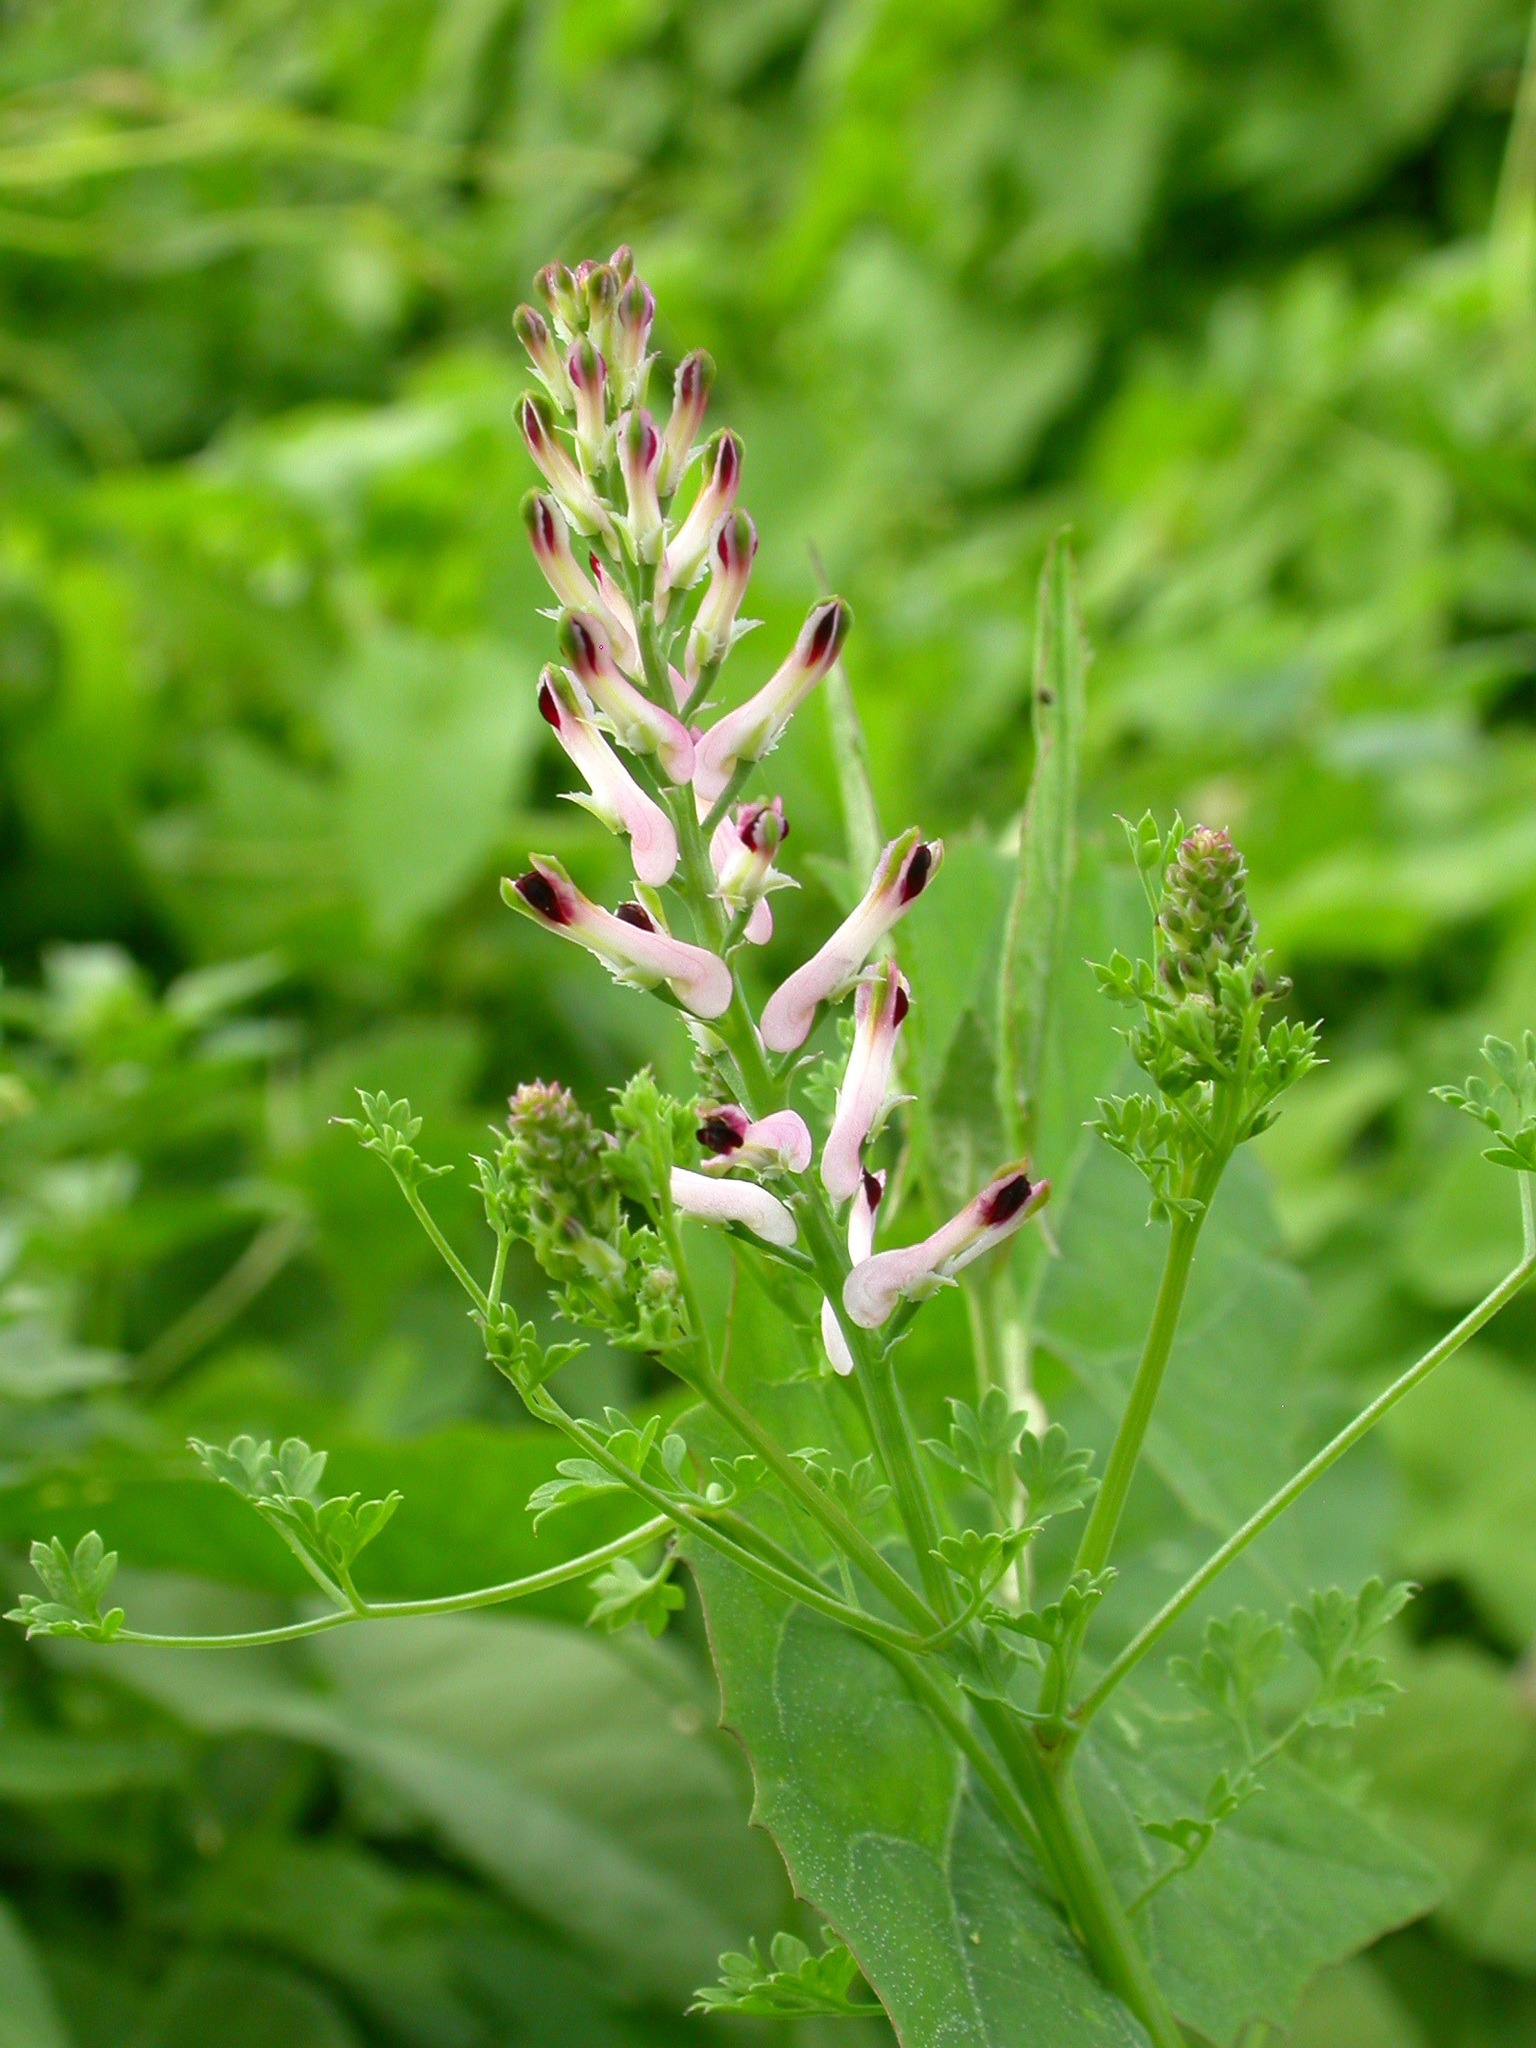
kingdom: Plantae
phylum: Tracheophyta
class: Magnoliopsida
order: Ranunculales
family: Papaveraceae
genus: Fumaria
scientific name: Fumaria bastardii
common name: Tall ramping-fumitory
